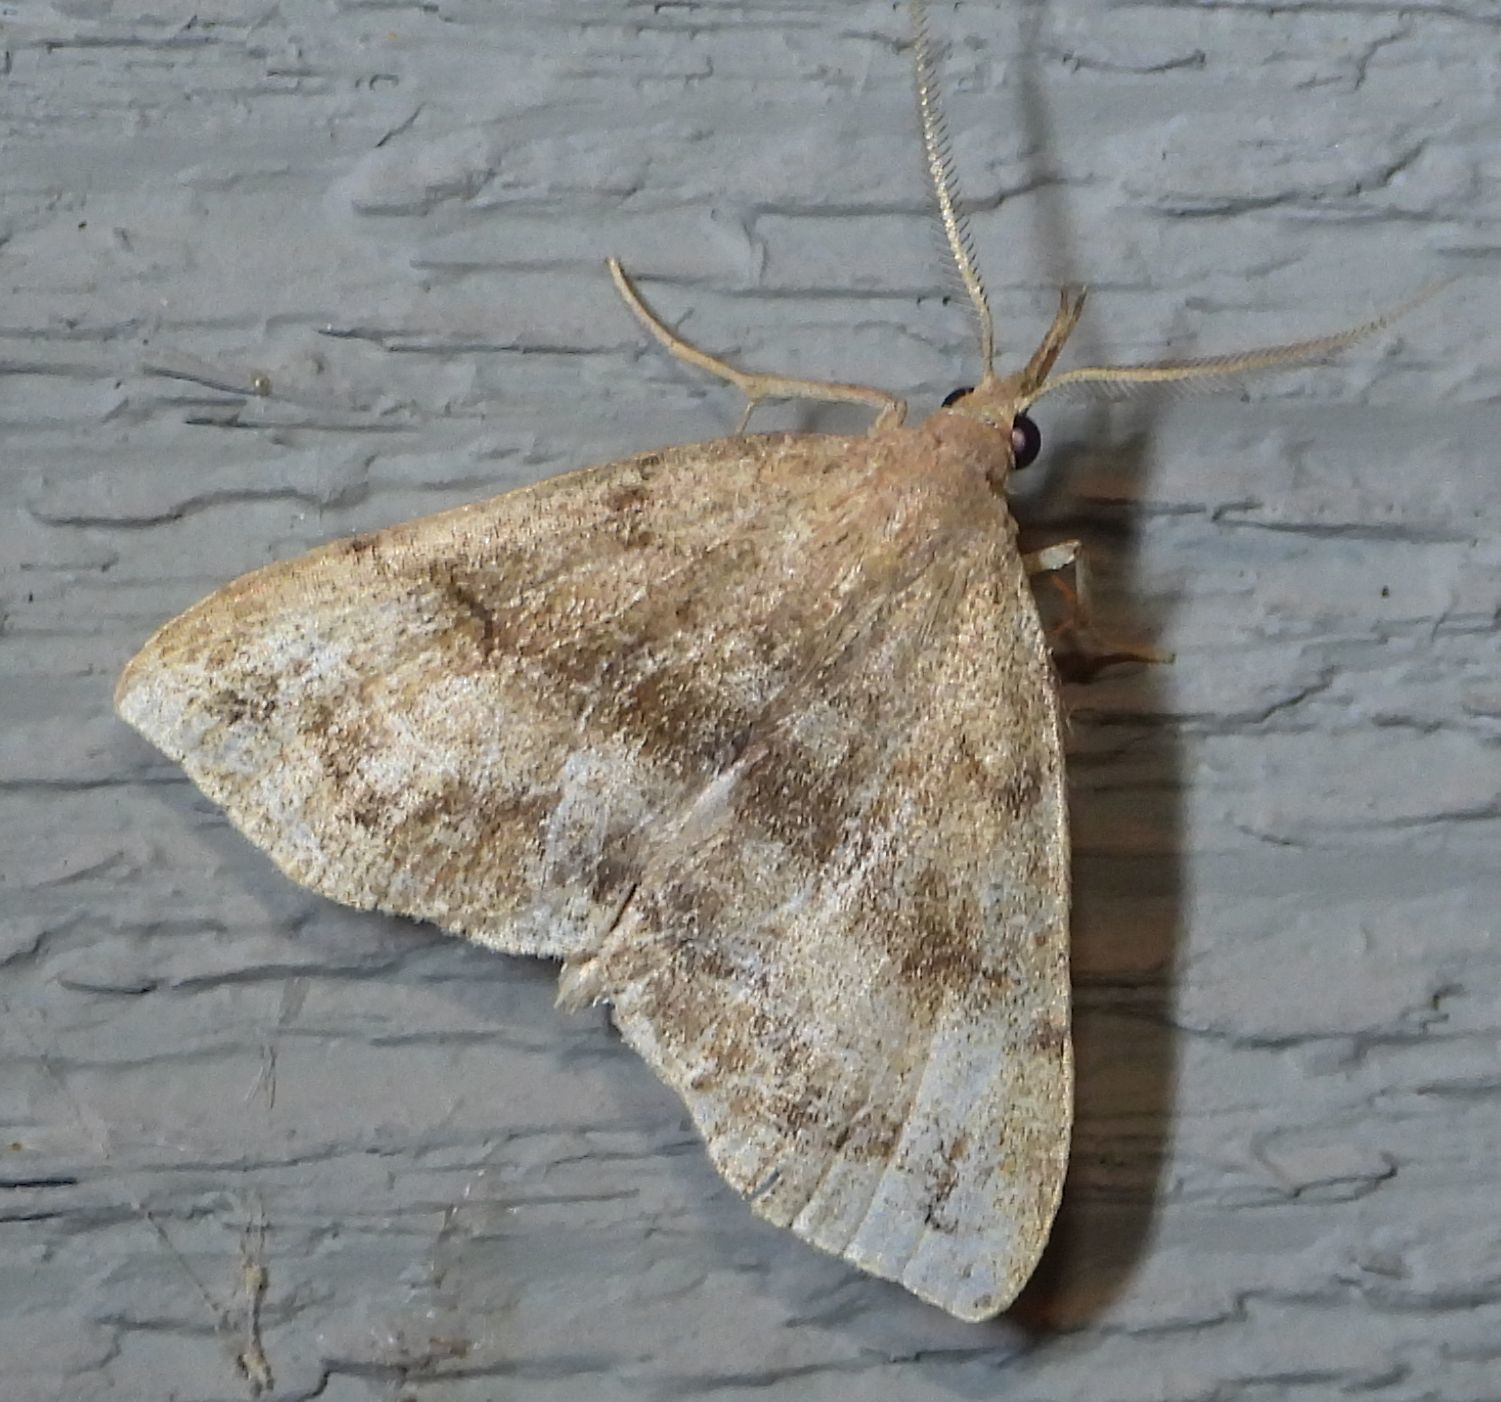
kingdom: Animalia
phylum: Arthropoda
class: Insecta
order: Lepidoptera
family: Erebidae
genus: Phalaenostola
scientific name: Phalaenostola eumelusalis
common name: Dark phalaenostola moth
